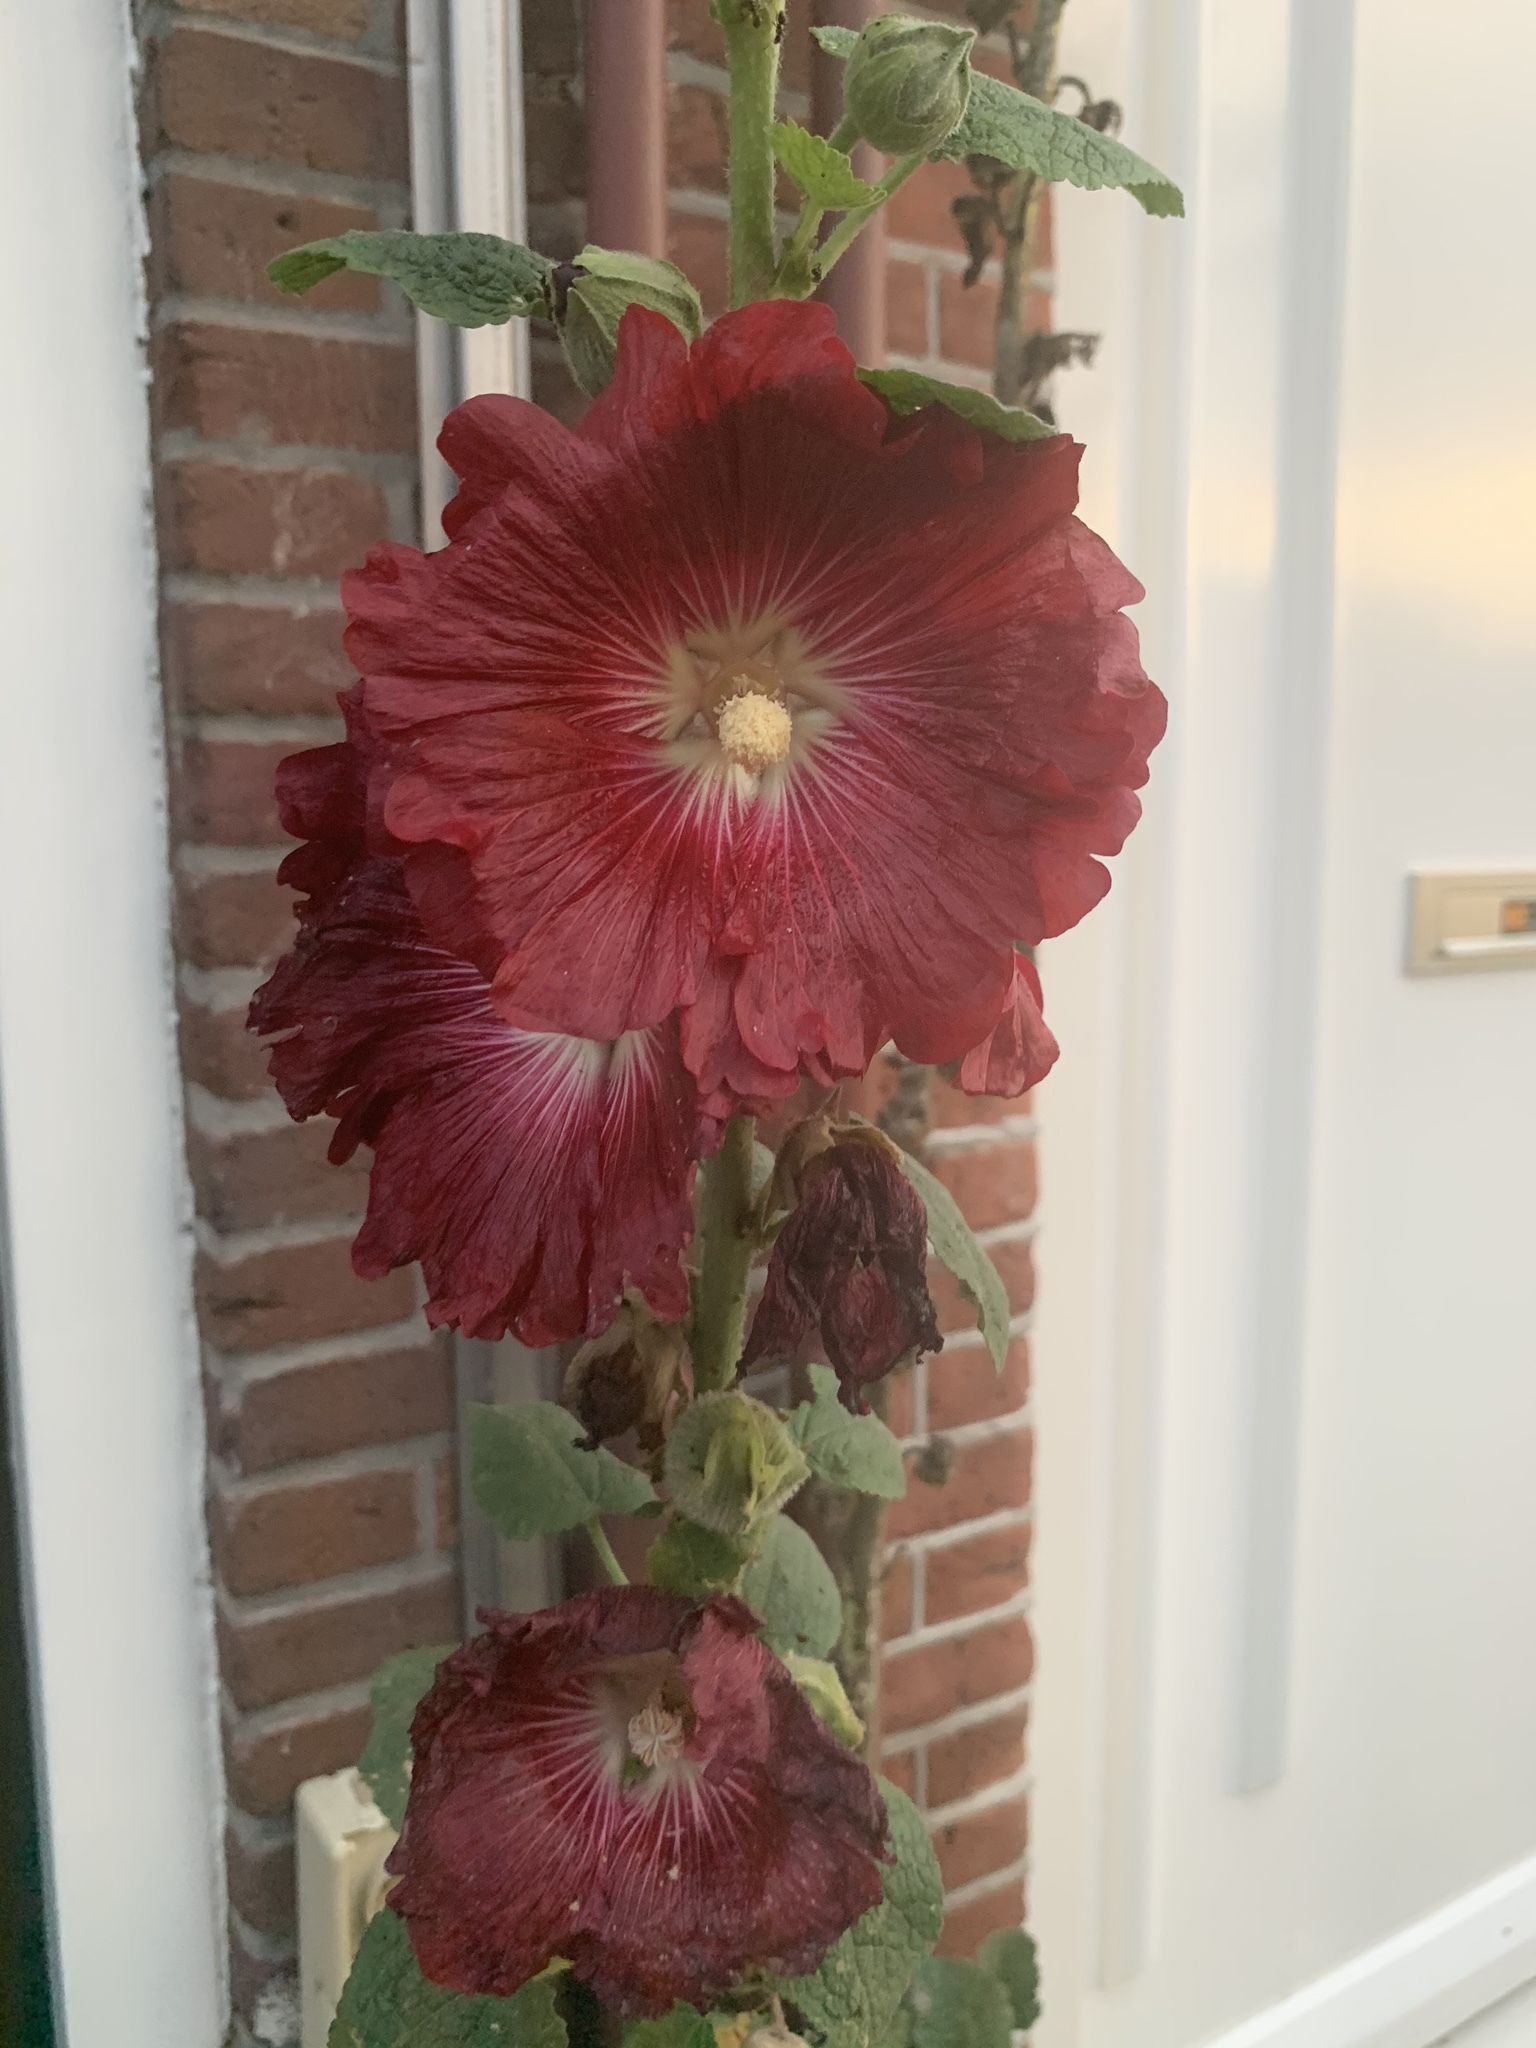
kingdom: Plantae
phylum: Tracheophyta
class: Magnoliopsida
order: Malvales
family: Malvaceae
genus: Alcea
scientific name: Alcea rosea
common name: Hollyhock
